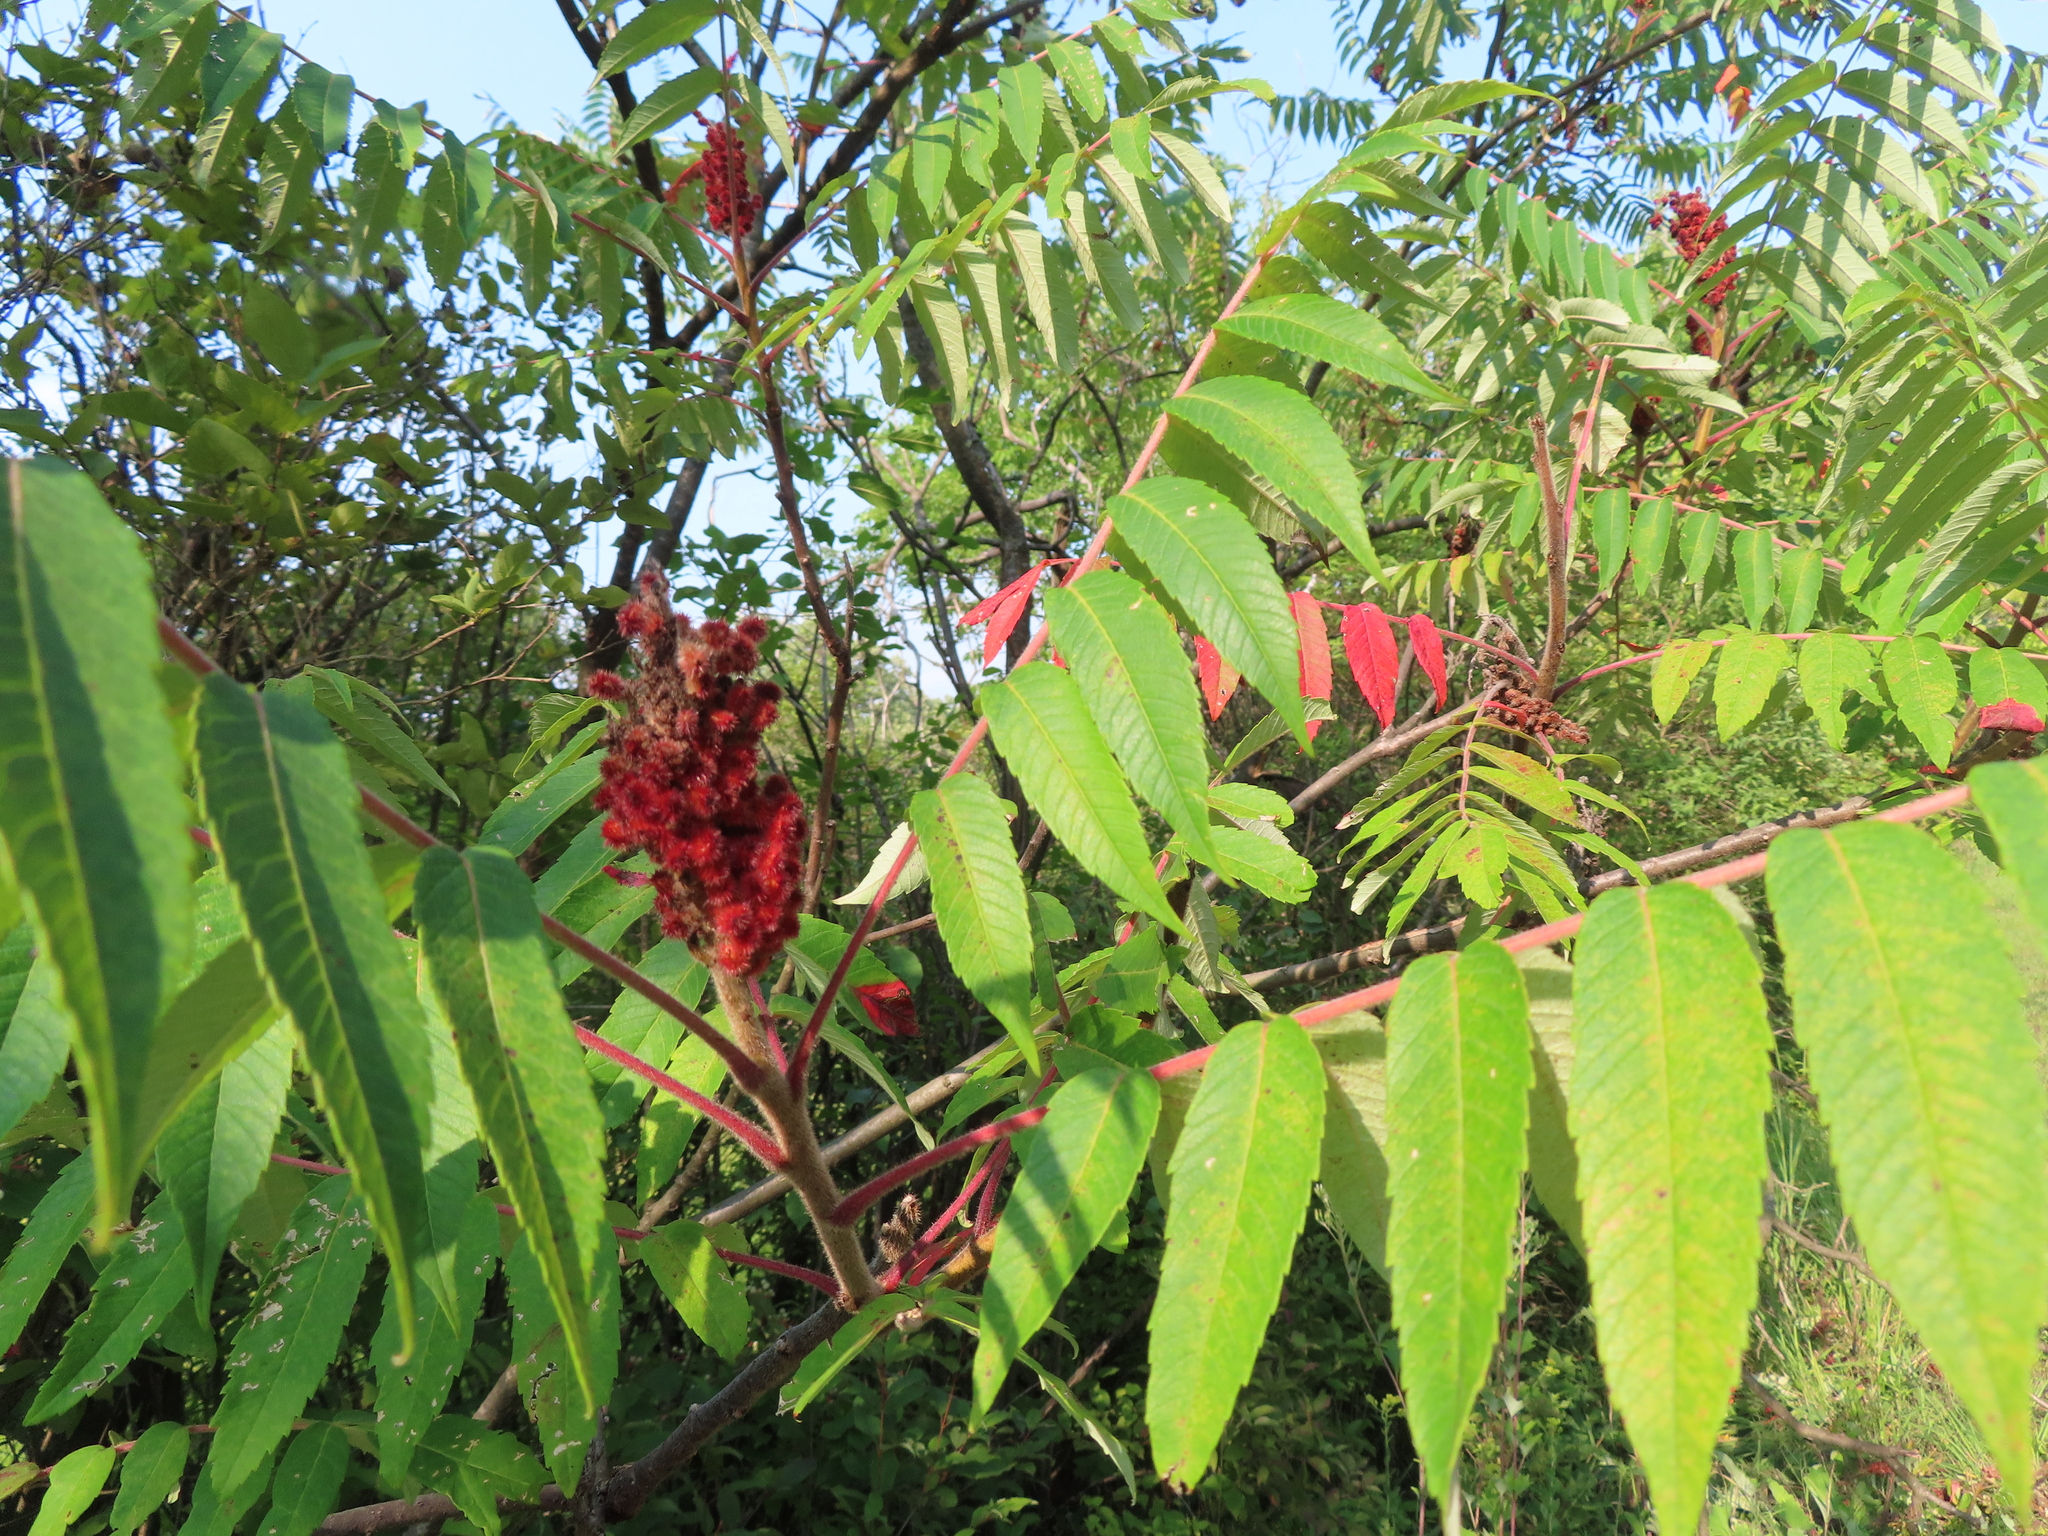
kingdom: Plantae
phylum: Tracheophyta
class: Magnoliopsida
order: Sapindales
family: Anacardiaceae
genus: Rhus
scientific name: Rhus typhina
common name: Staghorn sumac
